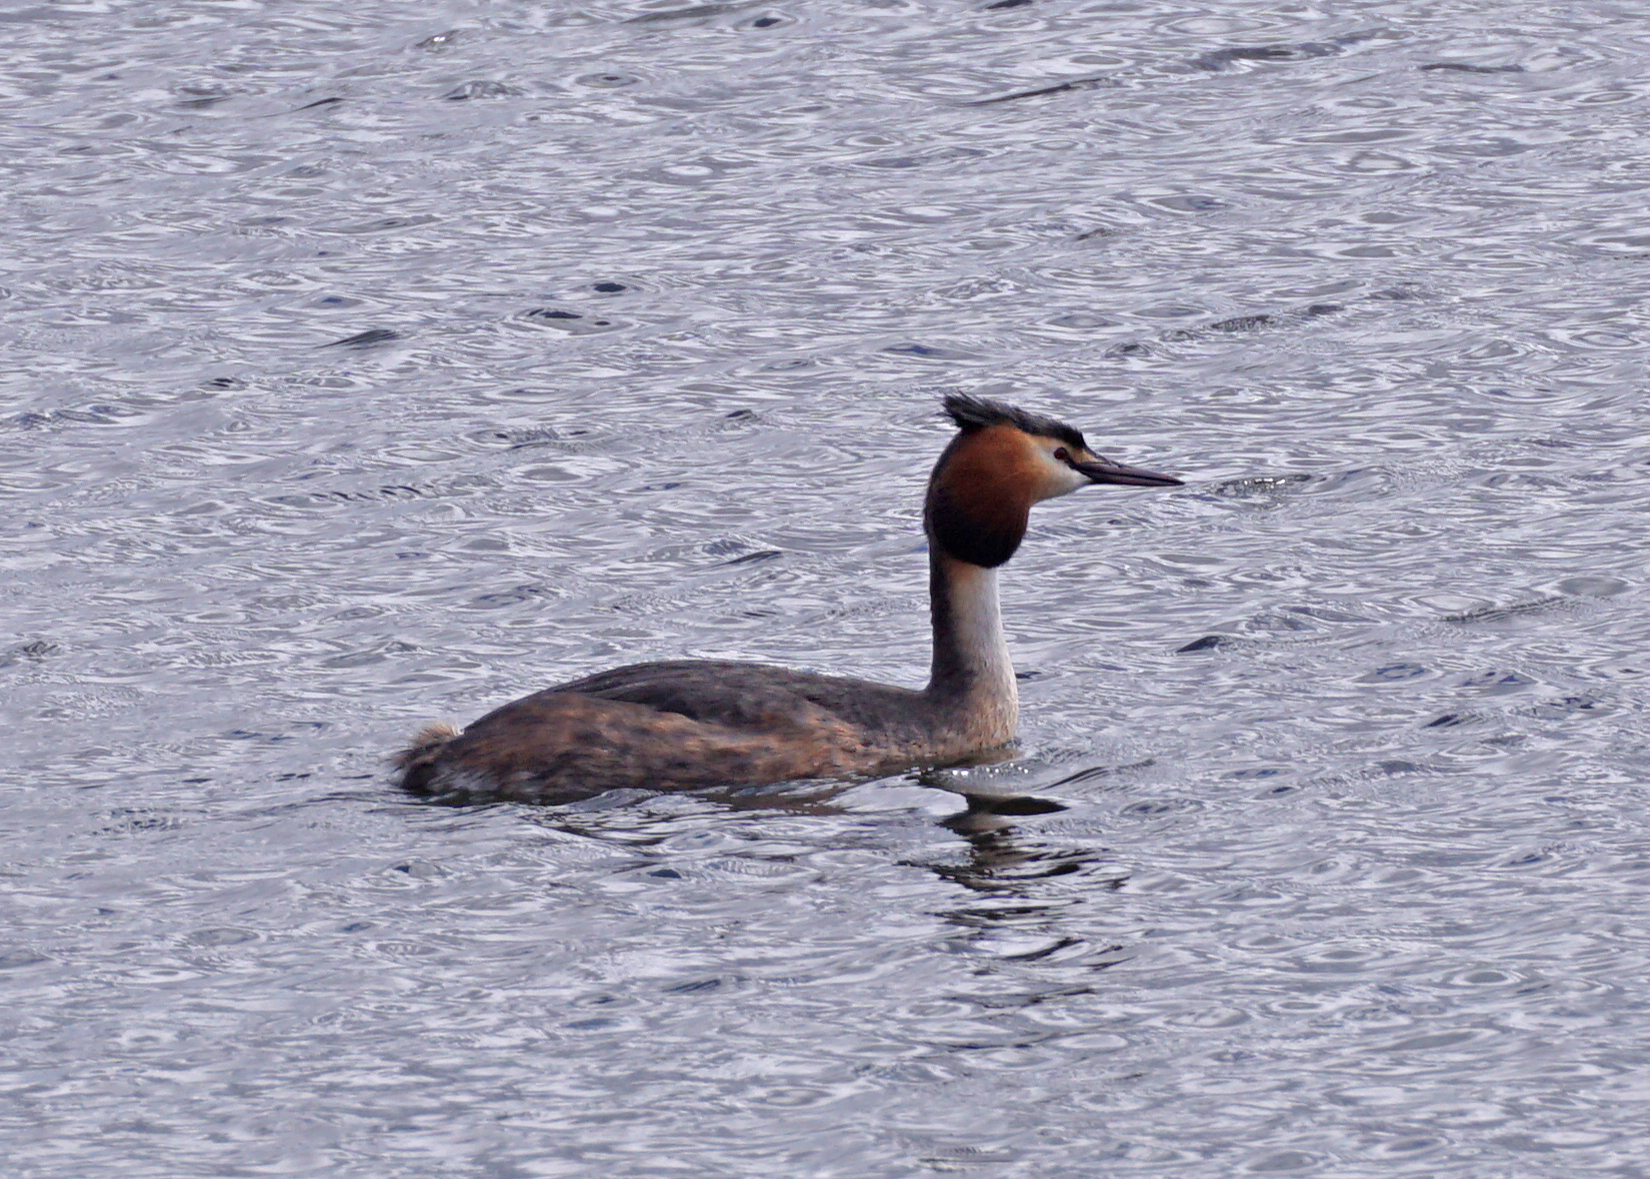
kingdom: Animalia
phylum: Chordata
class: Aves
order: Podicipediformes
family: Podicipedidae
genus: Podiceps
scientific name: Podiceps cristatus
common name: Great crested grebe
